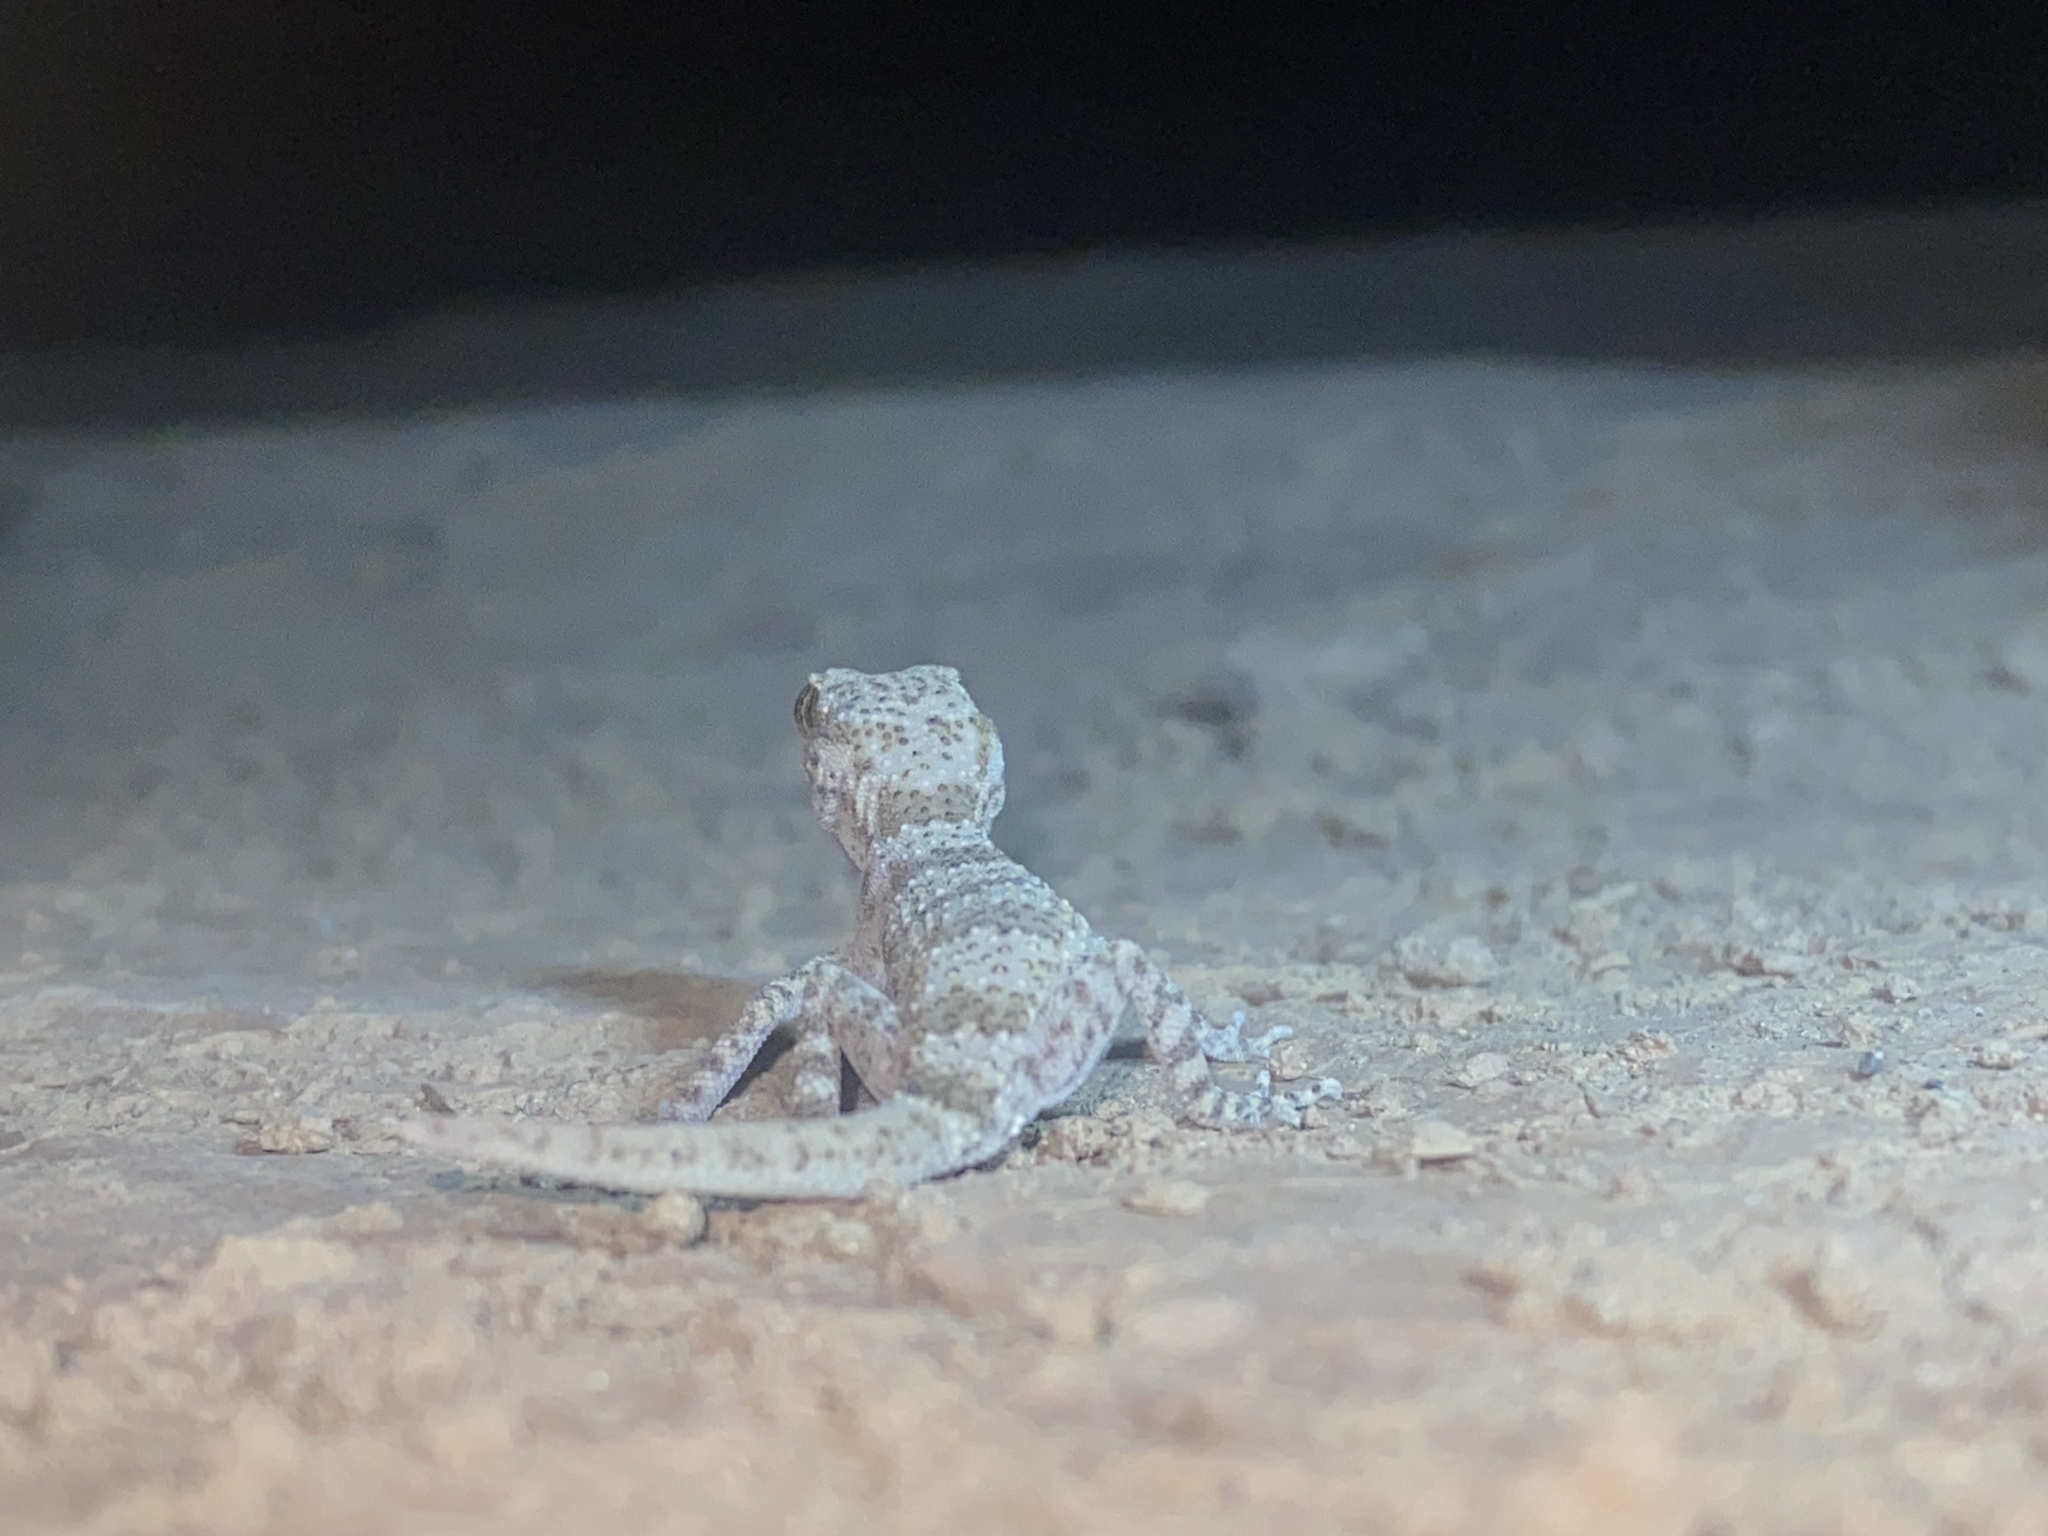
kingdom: Animalia
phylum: Chordata
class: Squamata
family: Gekkonidae
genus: Bunopus
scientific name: Bunopus crassicauda
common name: Thick-tailed tuberculated gecko
